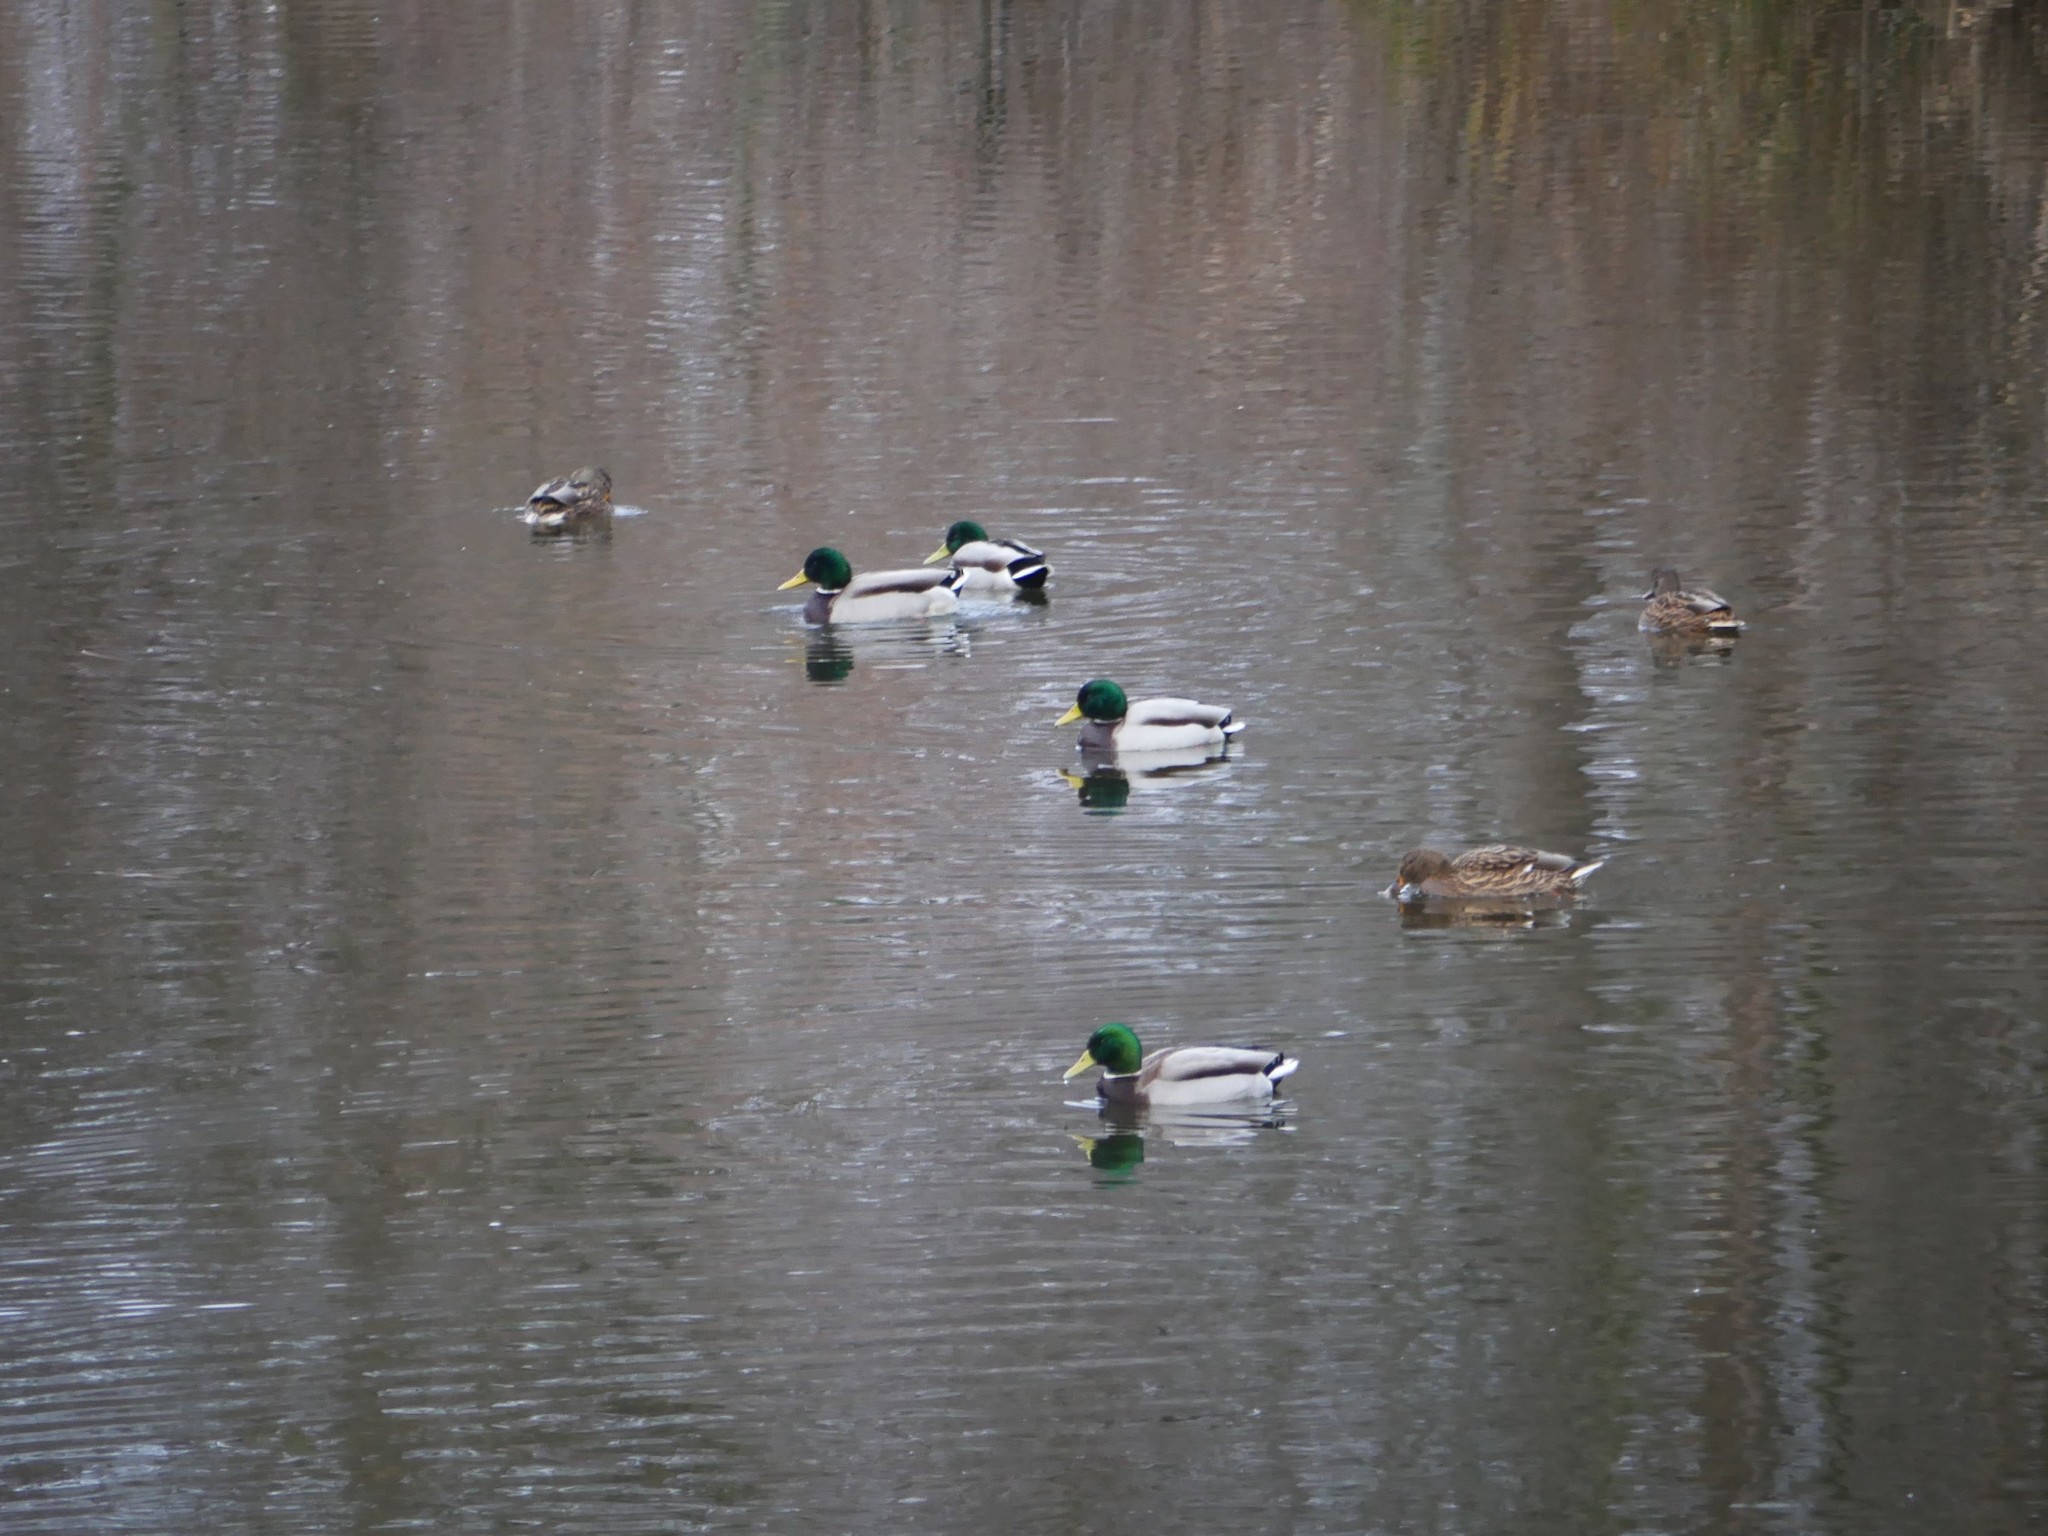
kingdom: Animalia
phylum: Chordata
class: Aves
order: Anseriformes
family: Anatidae
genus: Anas
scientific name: Anas platyrhynchos
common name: Mallard
